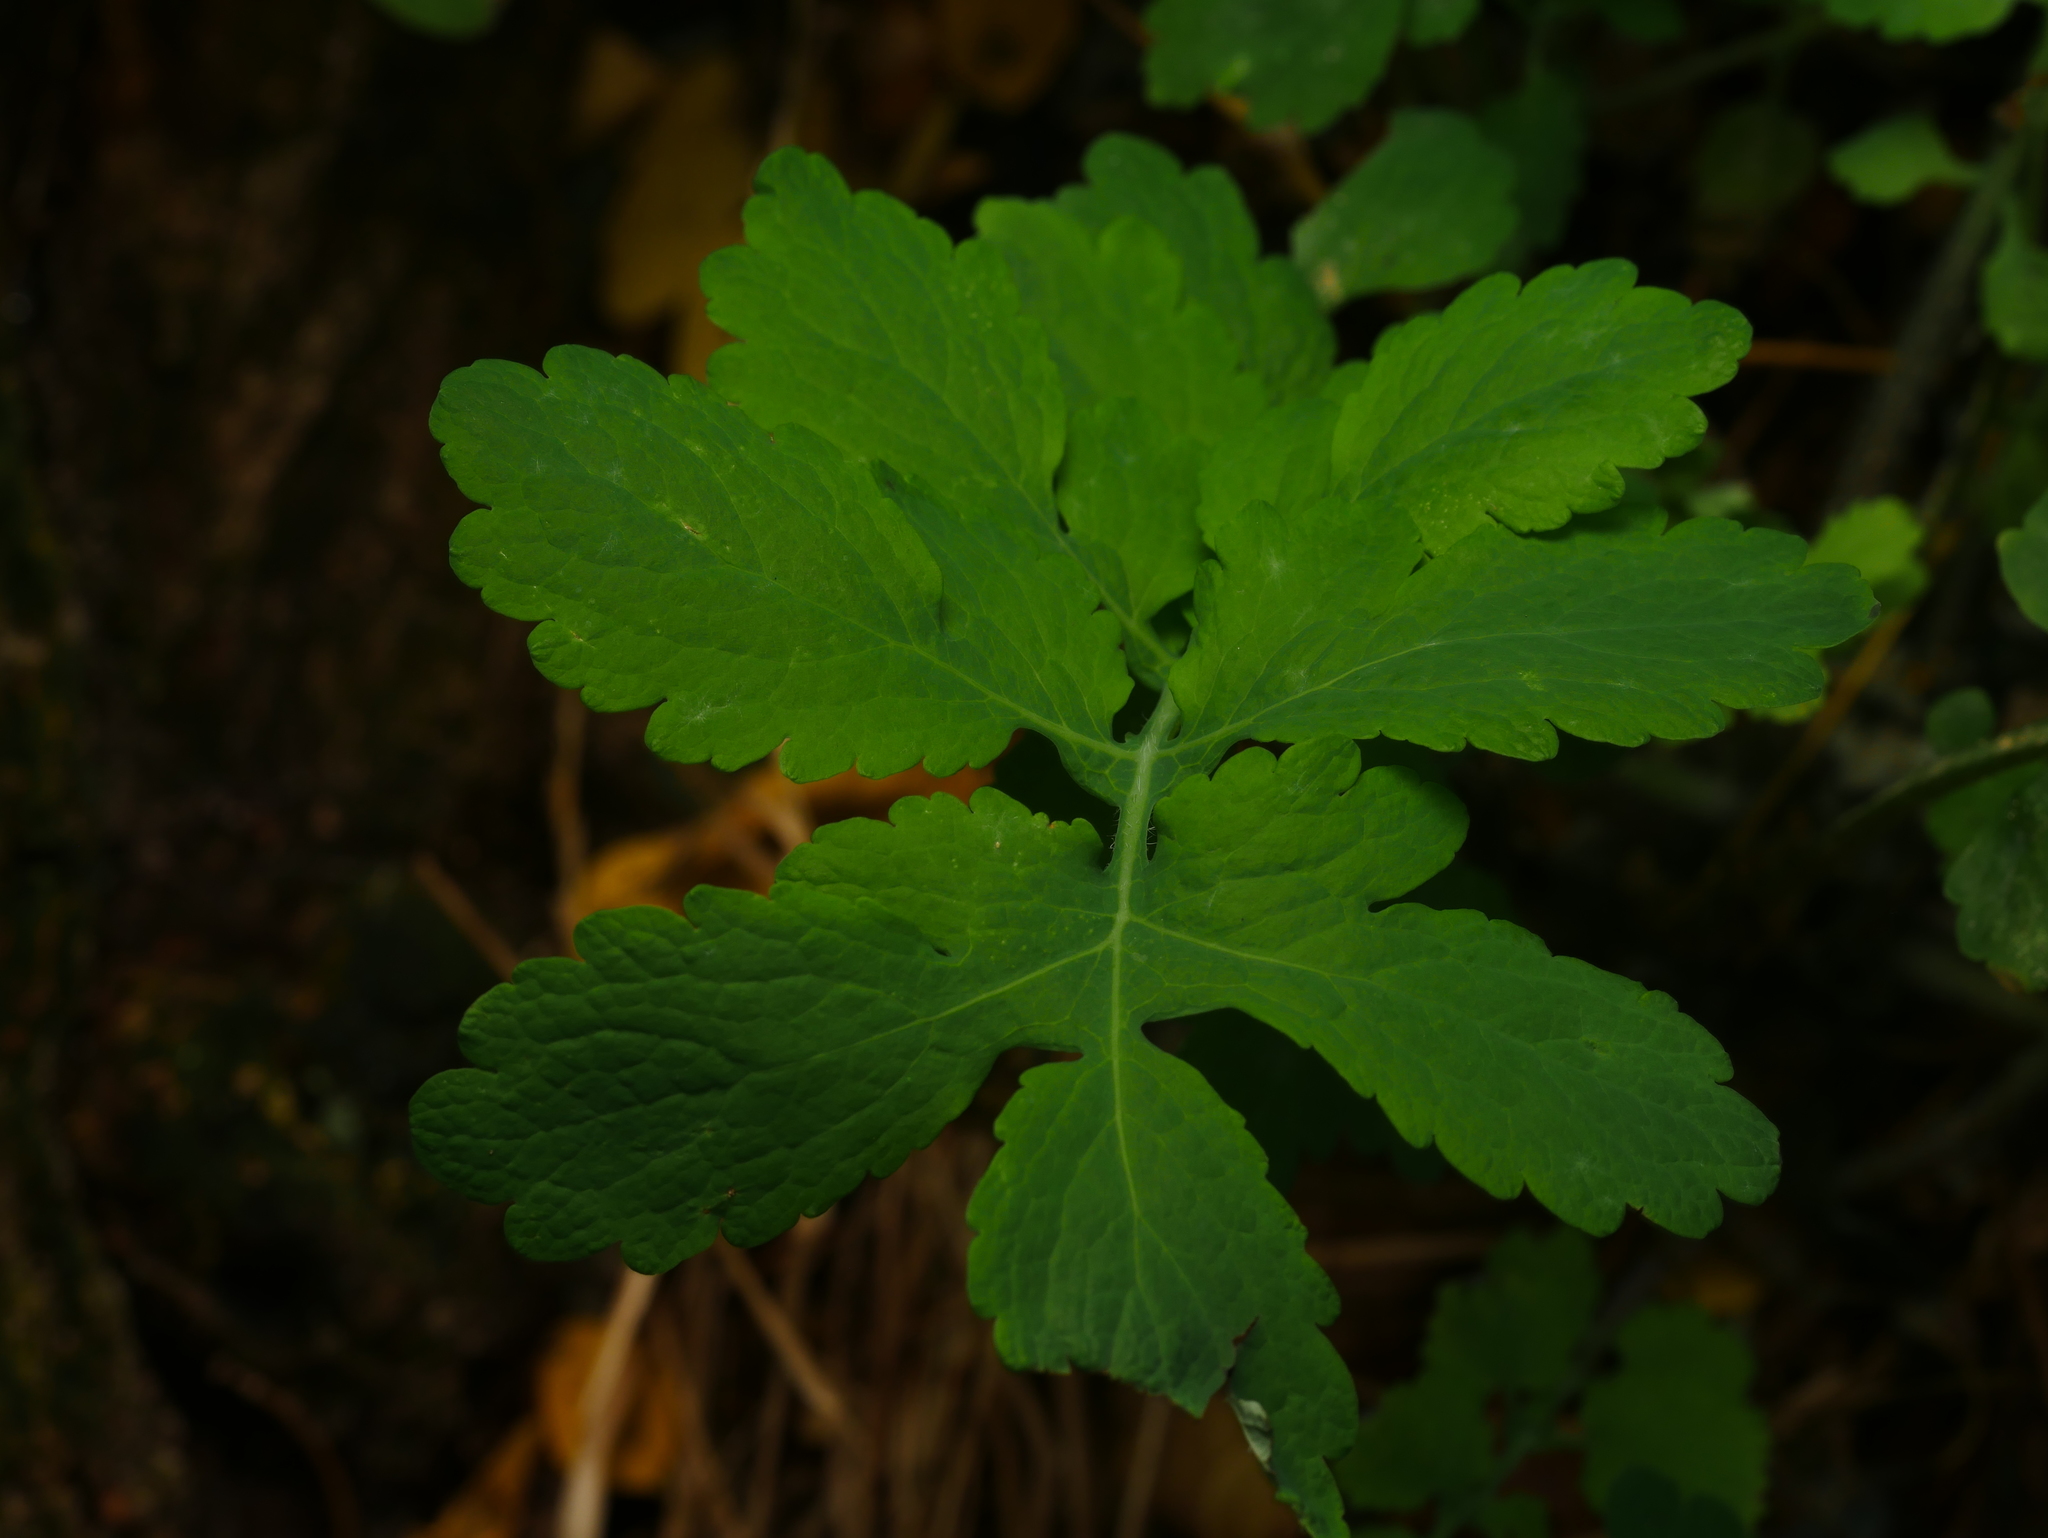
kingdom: Plantae
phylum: Tracheophyta
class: Magnoliopsida
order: Ranunculales
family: Papaveraceae
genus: Chelidonium
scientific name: Chelidonium majus
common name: Greater celandine
